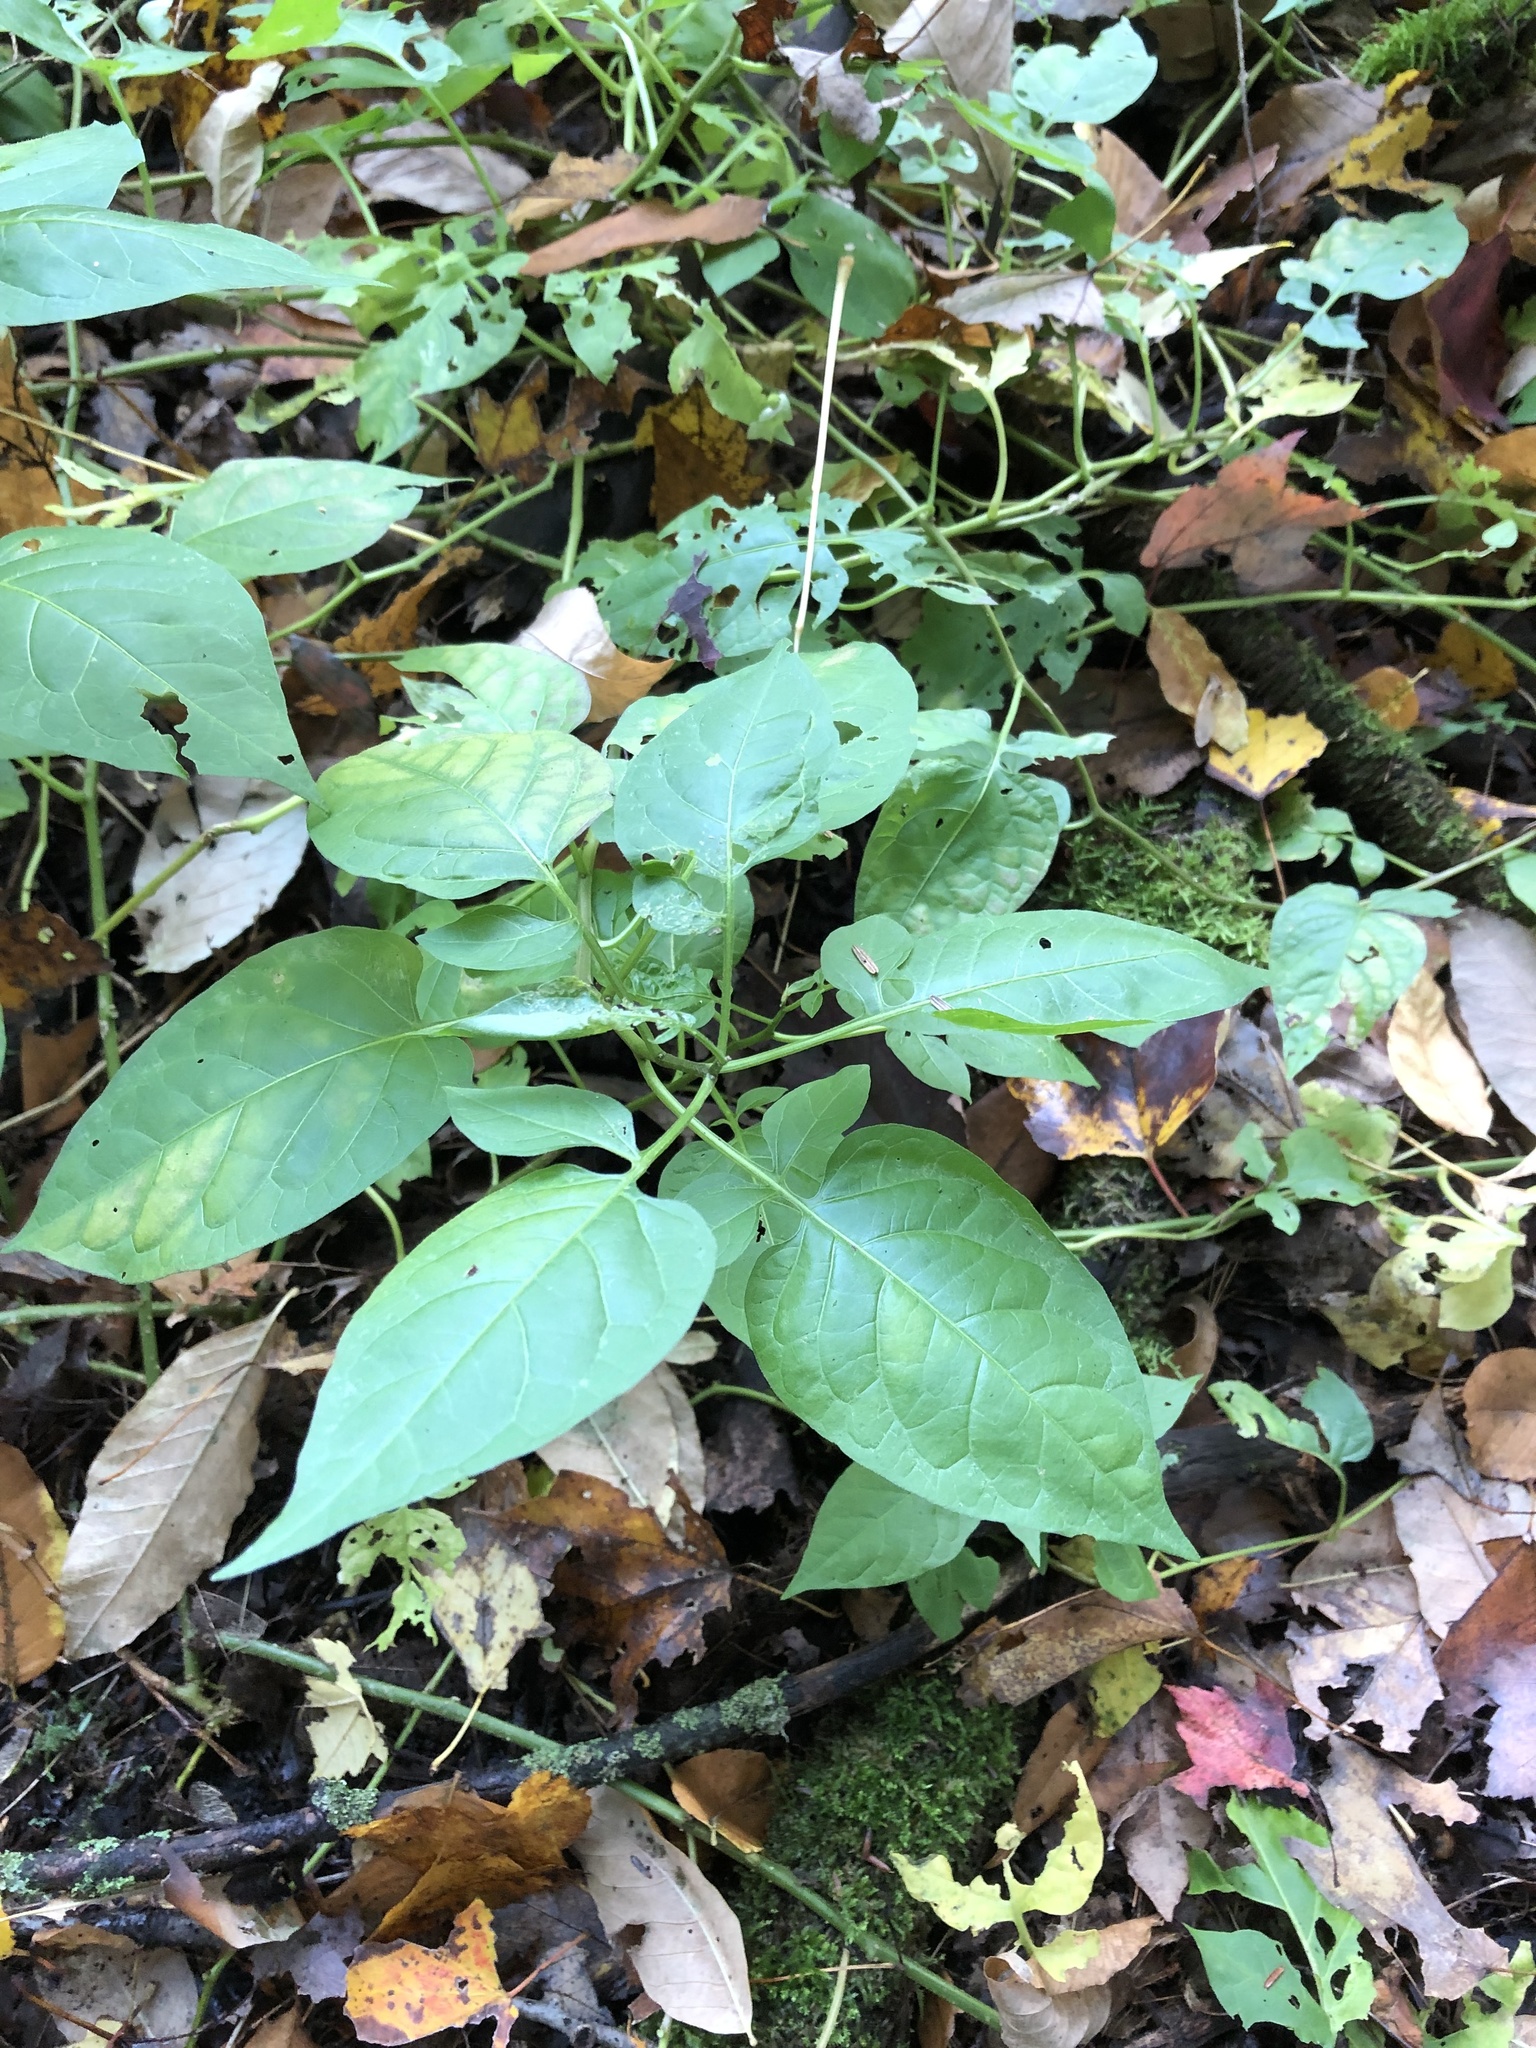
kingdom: Plantae
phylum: Tracheophyta
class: Magnoliopsida
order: Solanales
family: Solanaceae
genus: Solanum
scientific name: Solanum dulcamara
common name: Climbing nightshade
